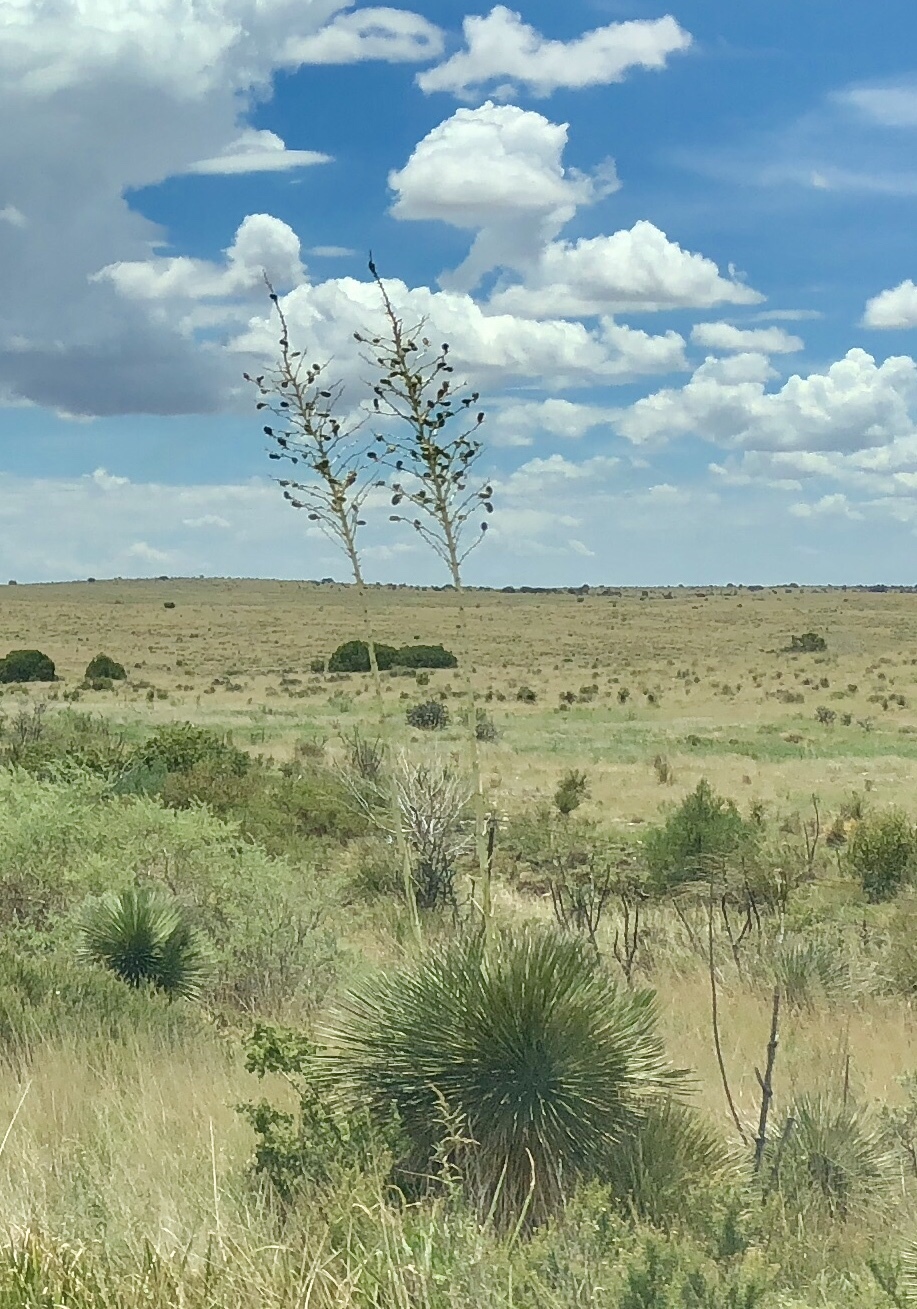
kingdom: Plantae
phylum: Tracheophyta
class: Liliopsida
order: Asparagales
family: Asparagaceae
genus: Yucca
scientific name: Yucca elata
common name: Palmella
